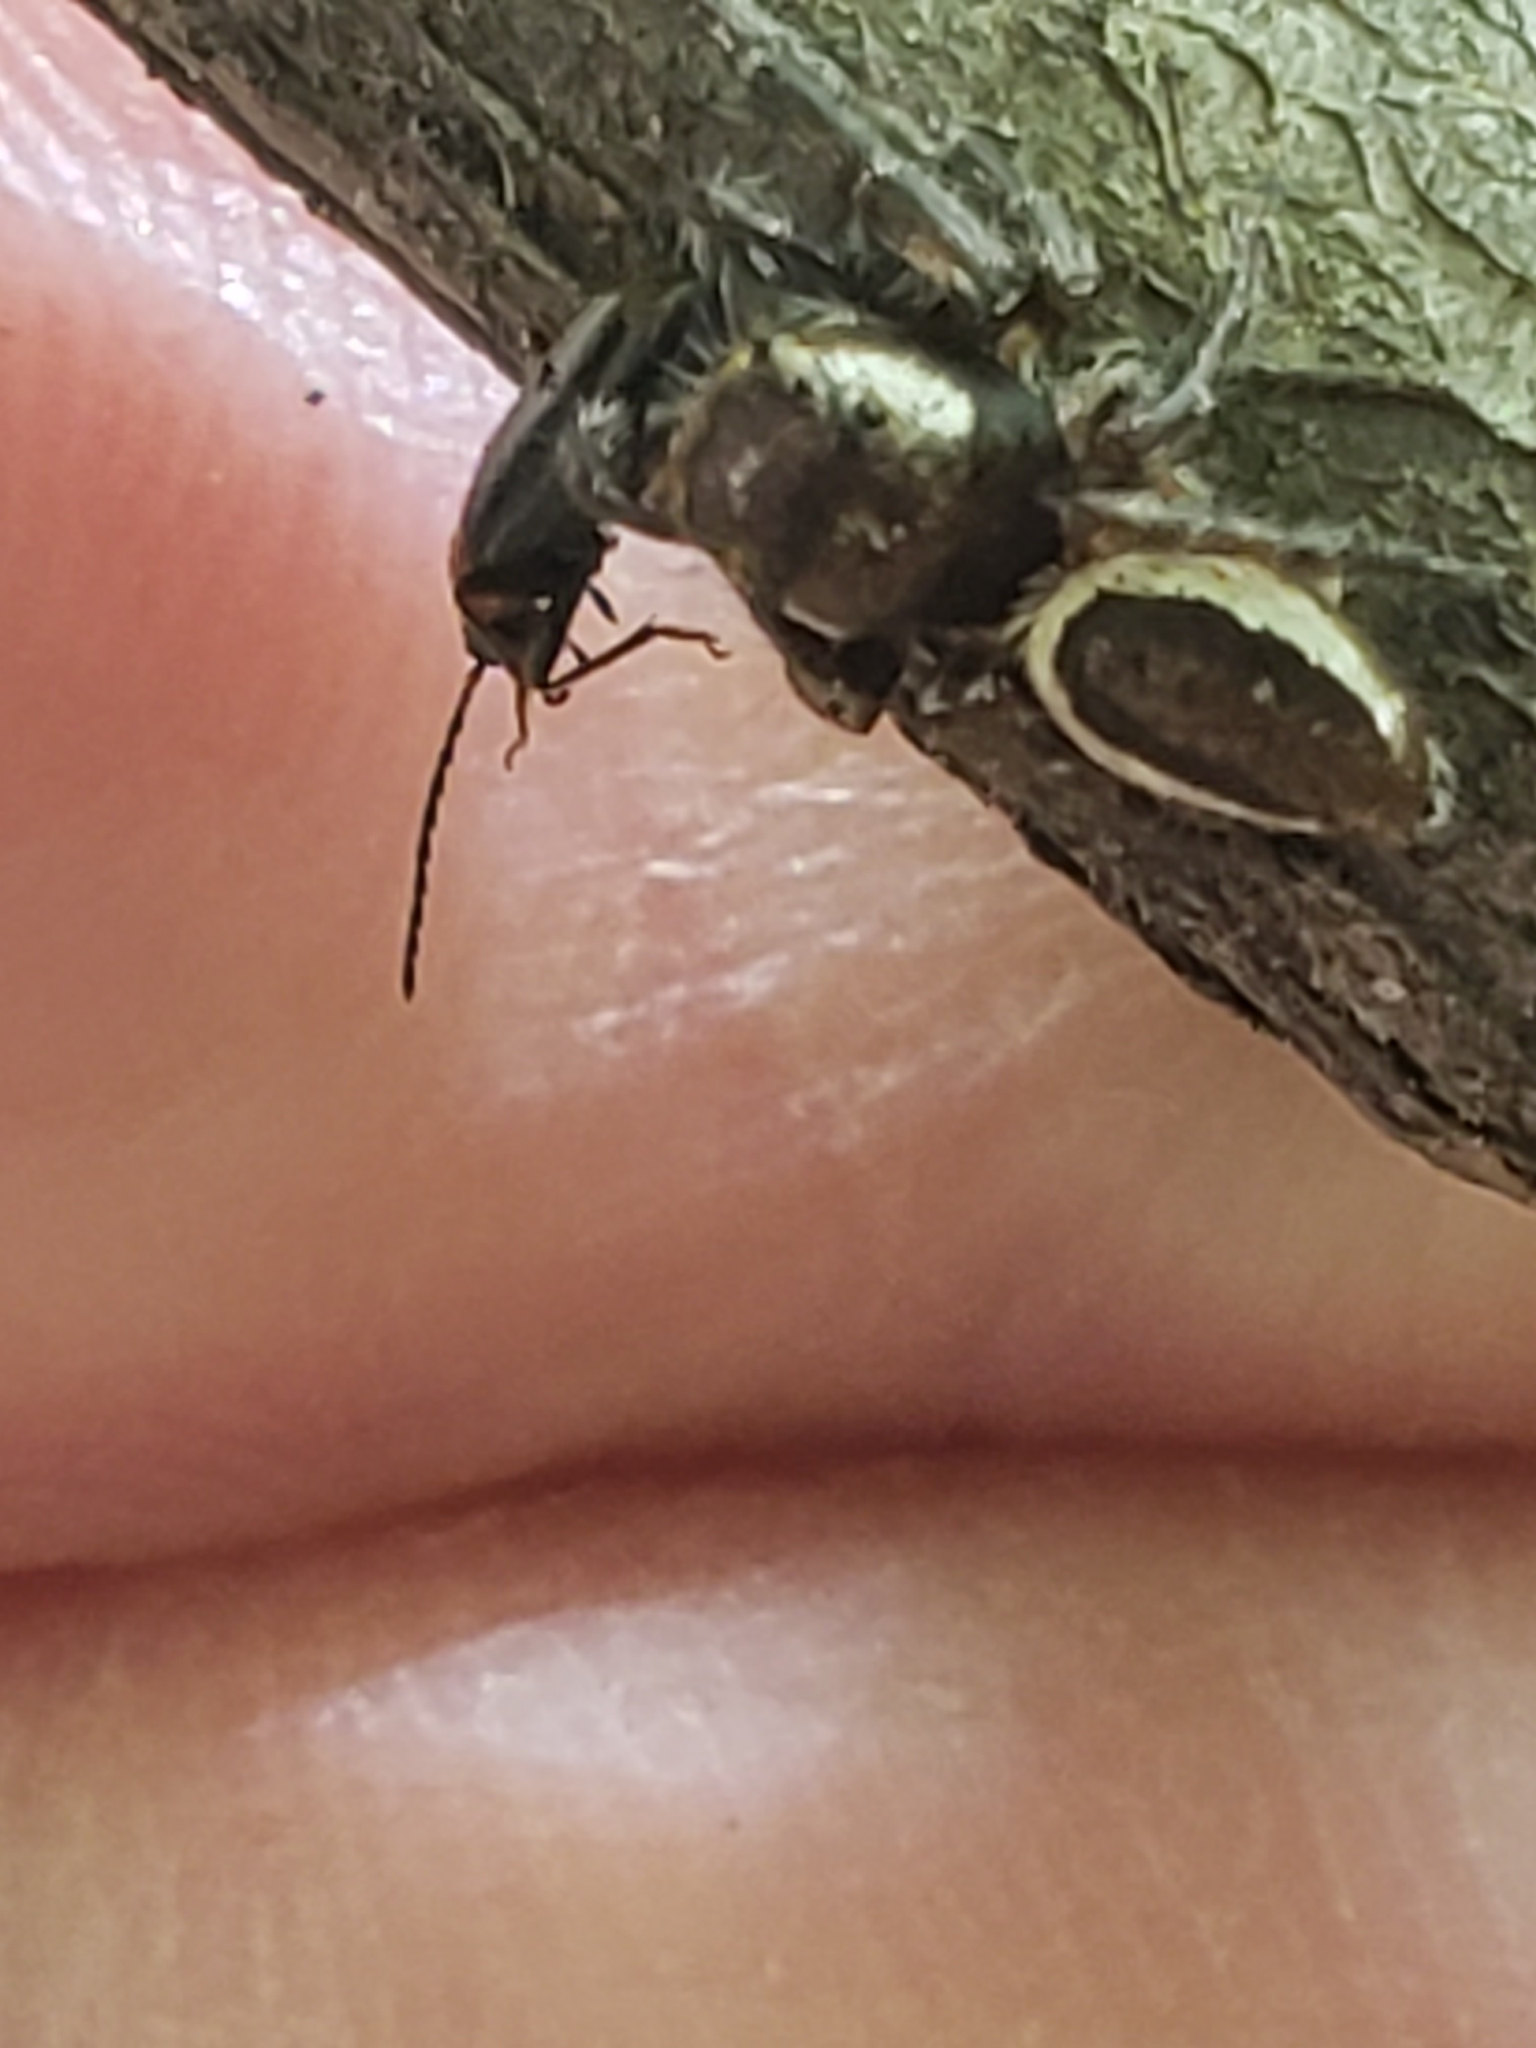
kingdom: Animalia
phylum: Arthropoda
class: Arachnida
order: Araneae
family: Salticidae
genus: Eris
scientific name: Eris militaris
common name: Bronze jumper
